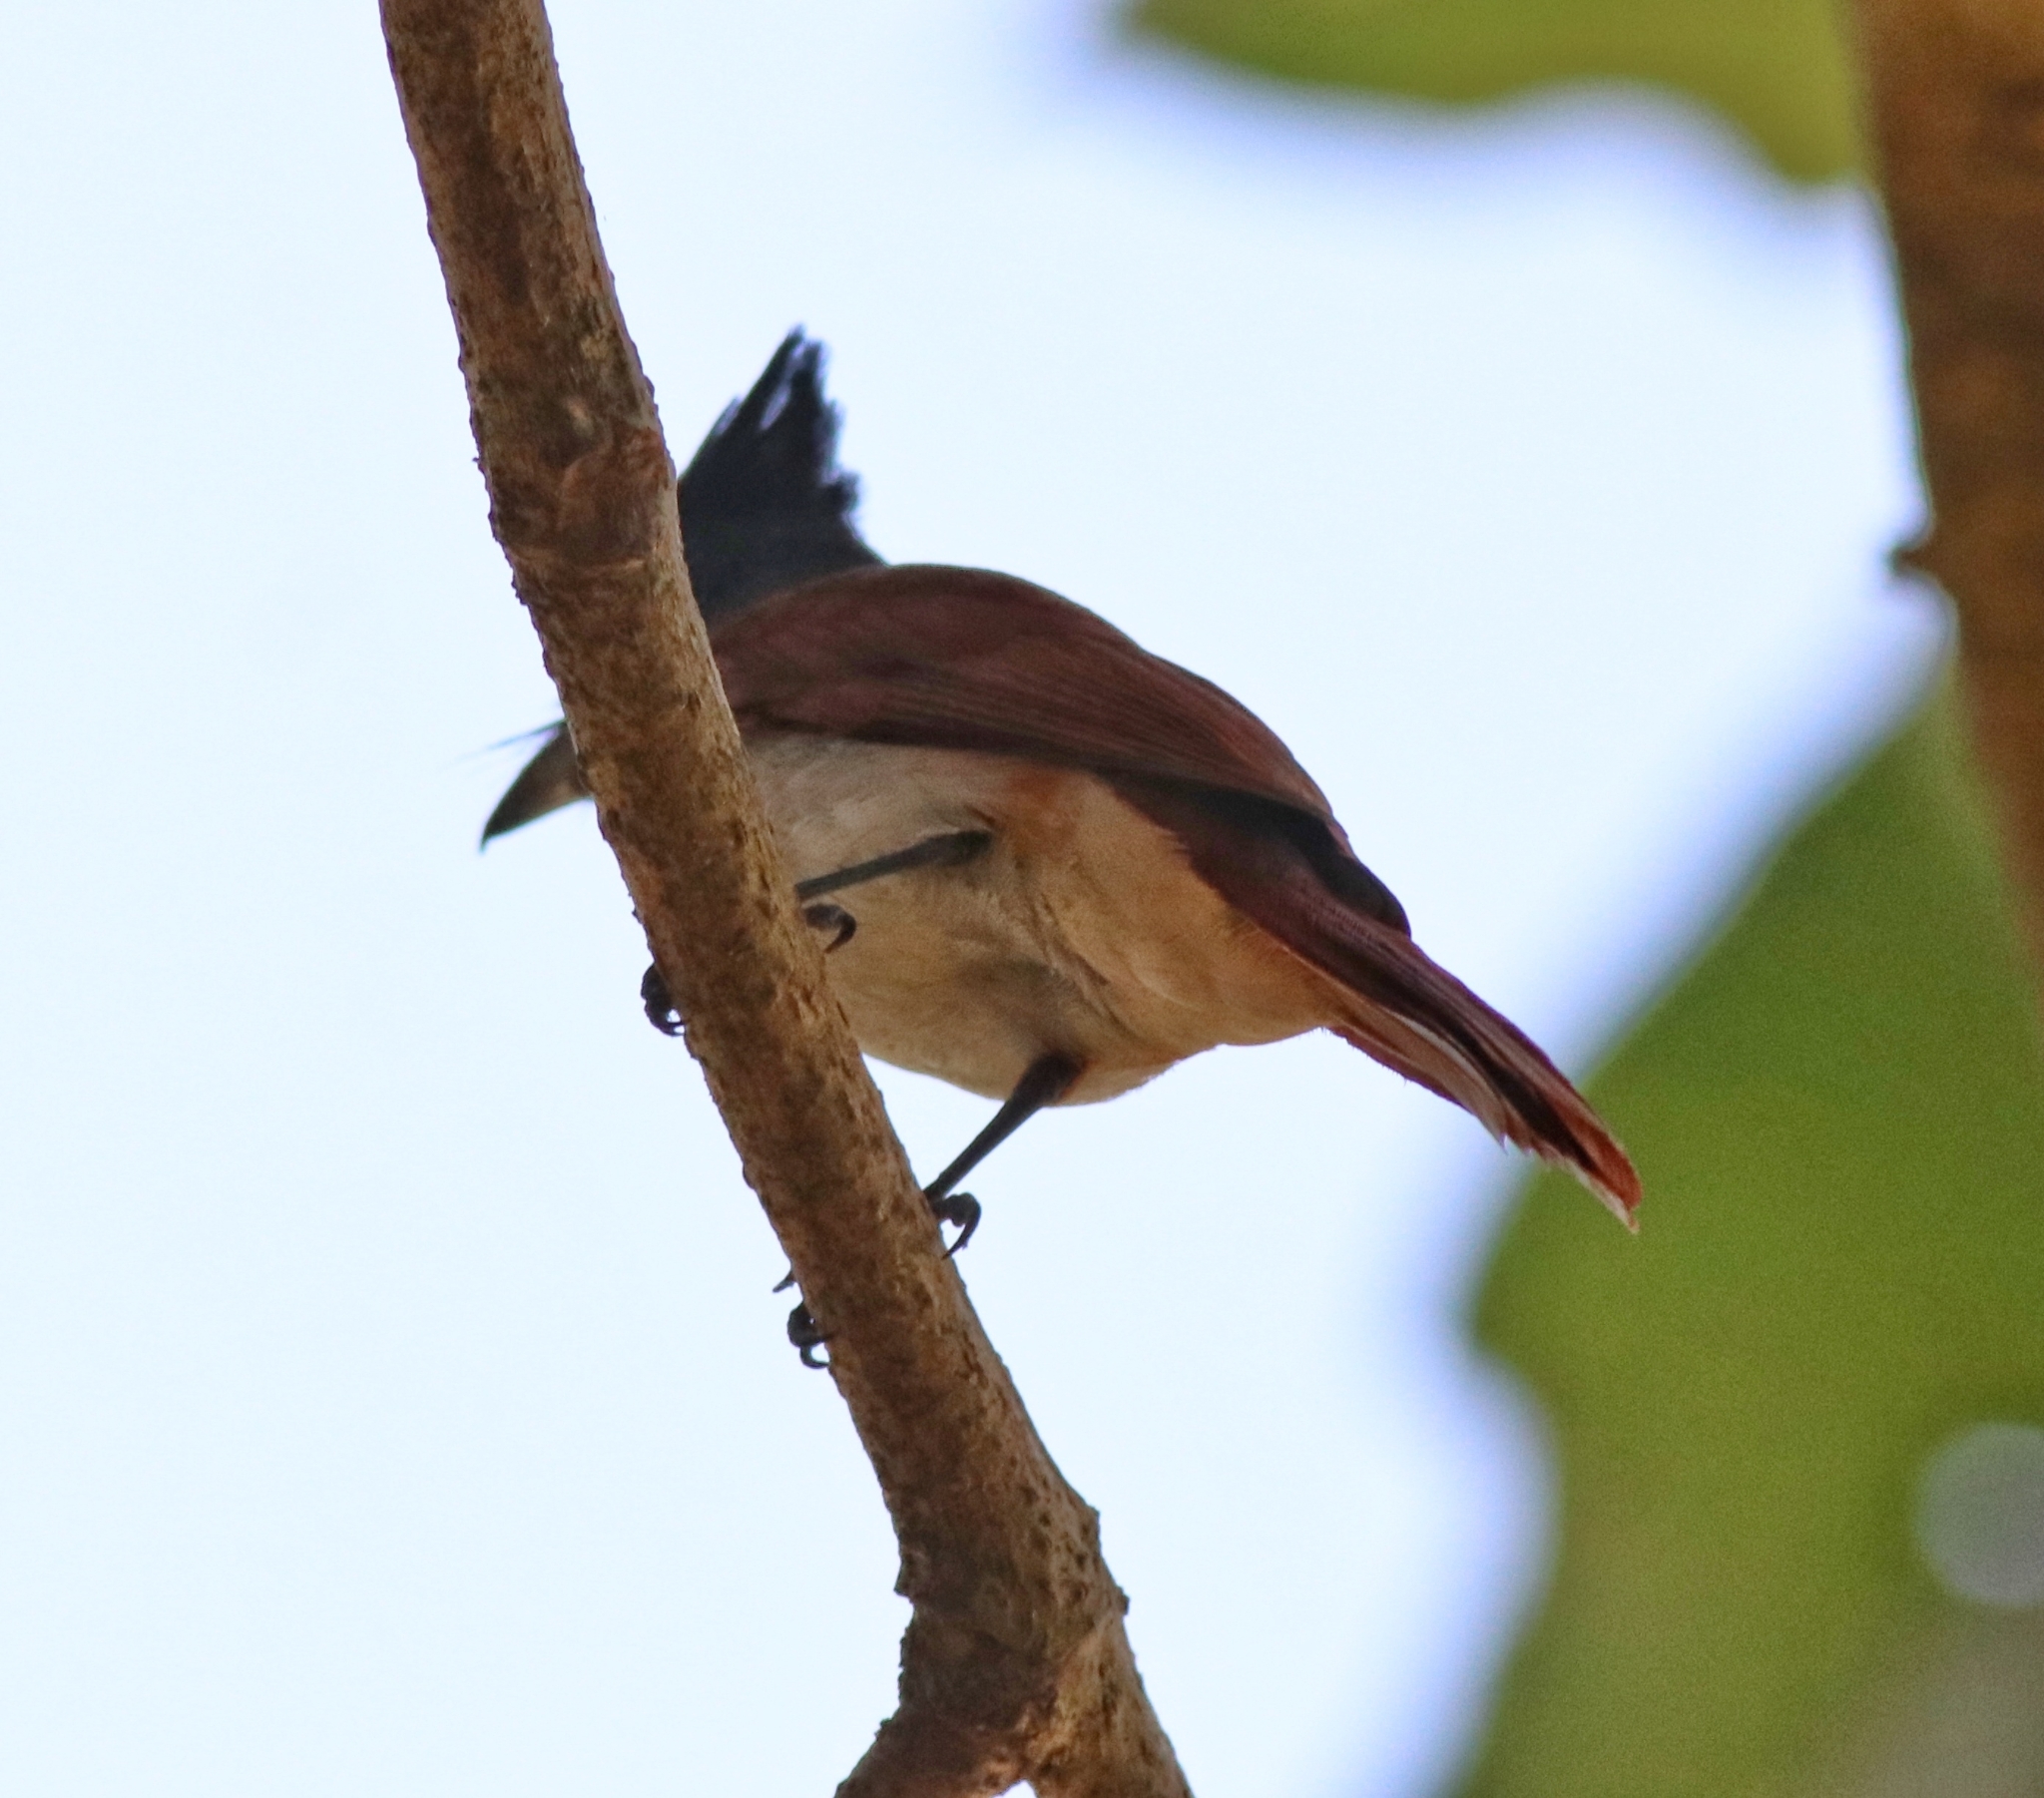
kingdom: Animalia
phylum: Chordata
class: Aves
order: Passeriformes
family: Monarchidae
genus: Terpsiphone
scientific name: Terpsiphone paradisi
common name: Indian paradise flycatcher
